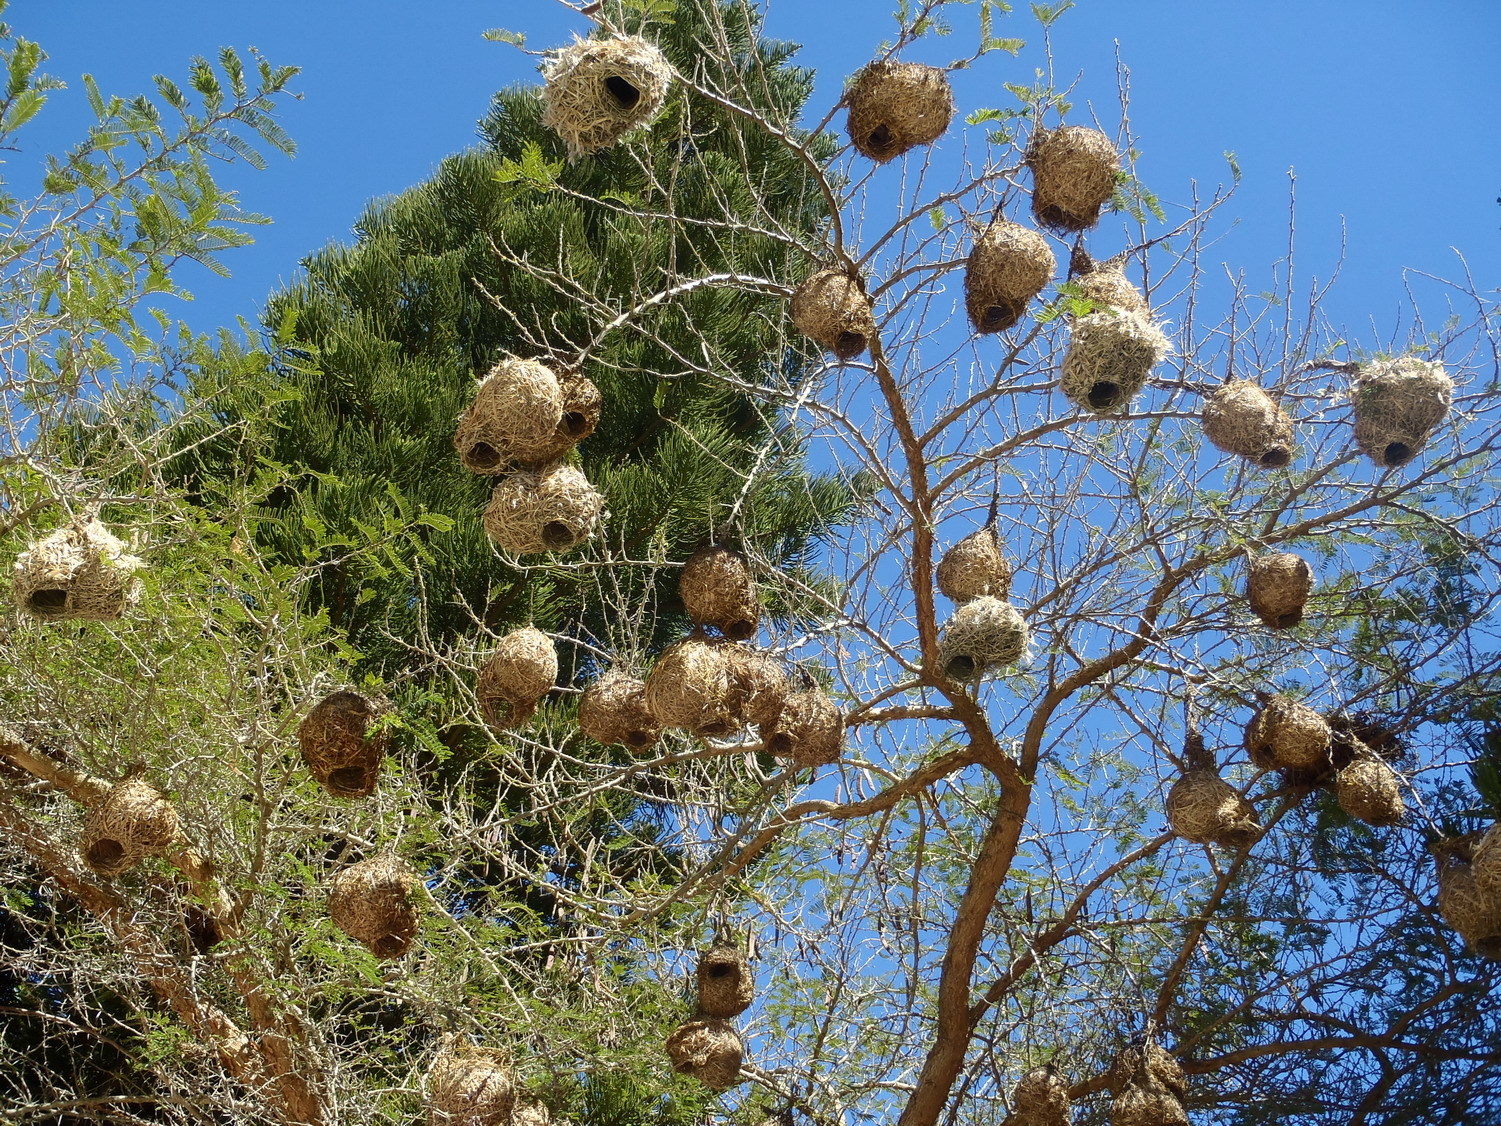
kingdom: Animalia
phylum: Chordata
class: Aves
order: Passeriformes
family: Ploceidae
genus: Ploceus
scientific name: Ploceus capensis
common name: Cape weaver
